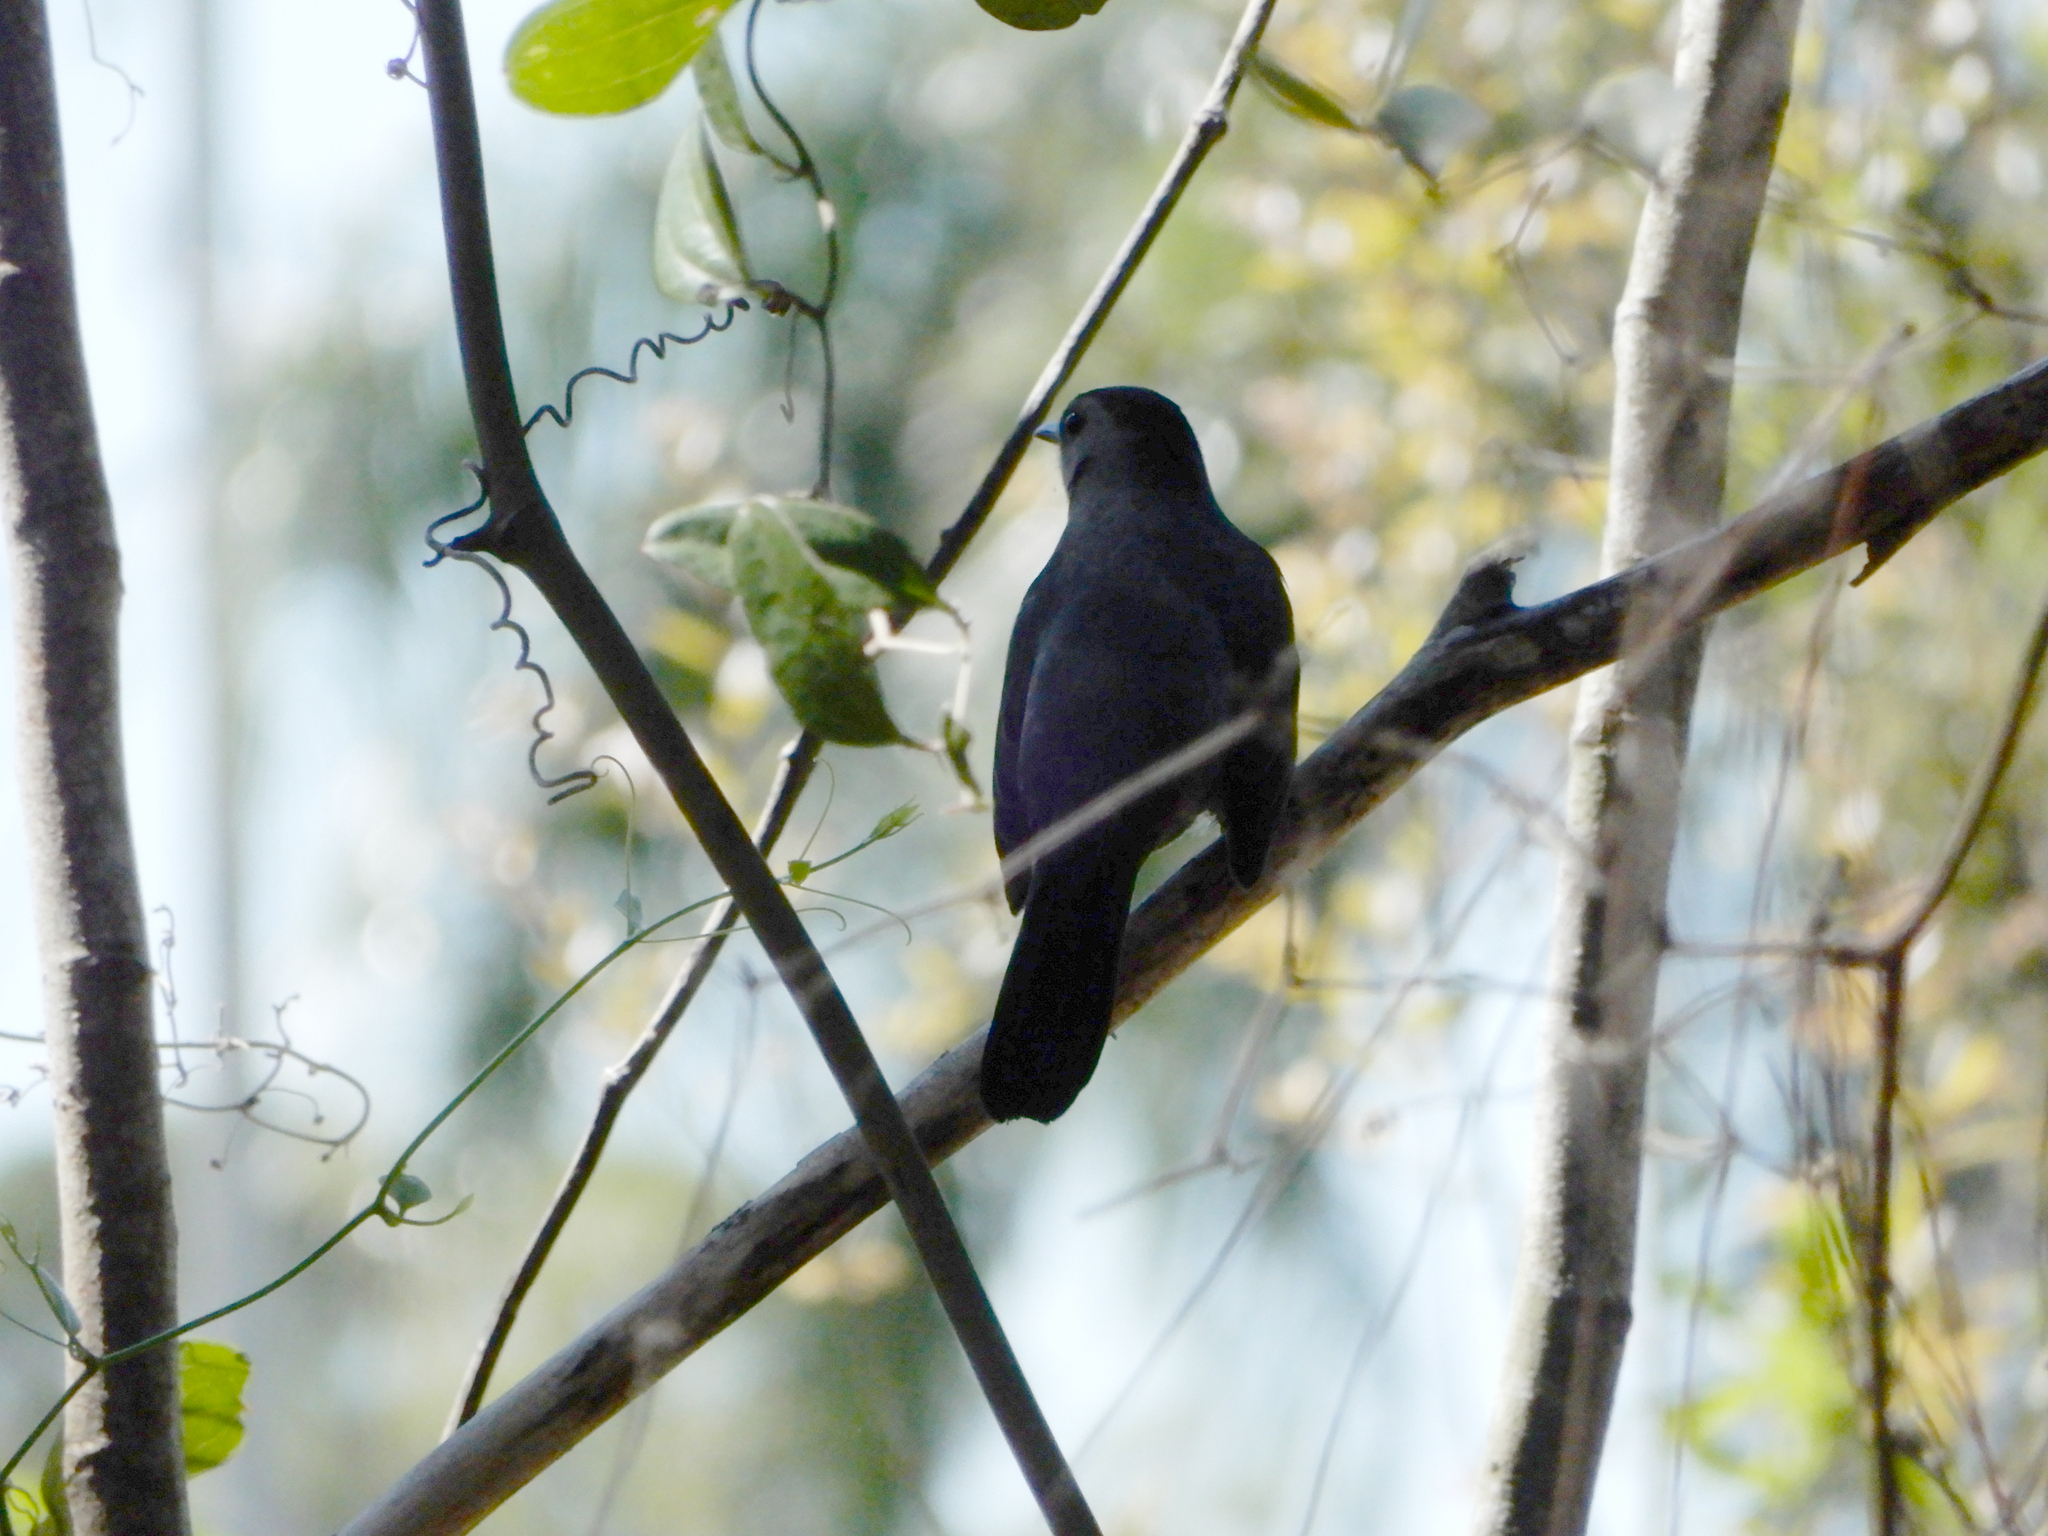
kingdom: Animalia
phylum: Chordata
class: Aves
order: Passeriformes
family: Mimidae
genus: Dumetella
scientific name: Dumetella carolinensis
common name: Gray catbird
